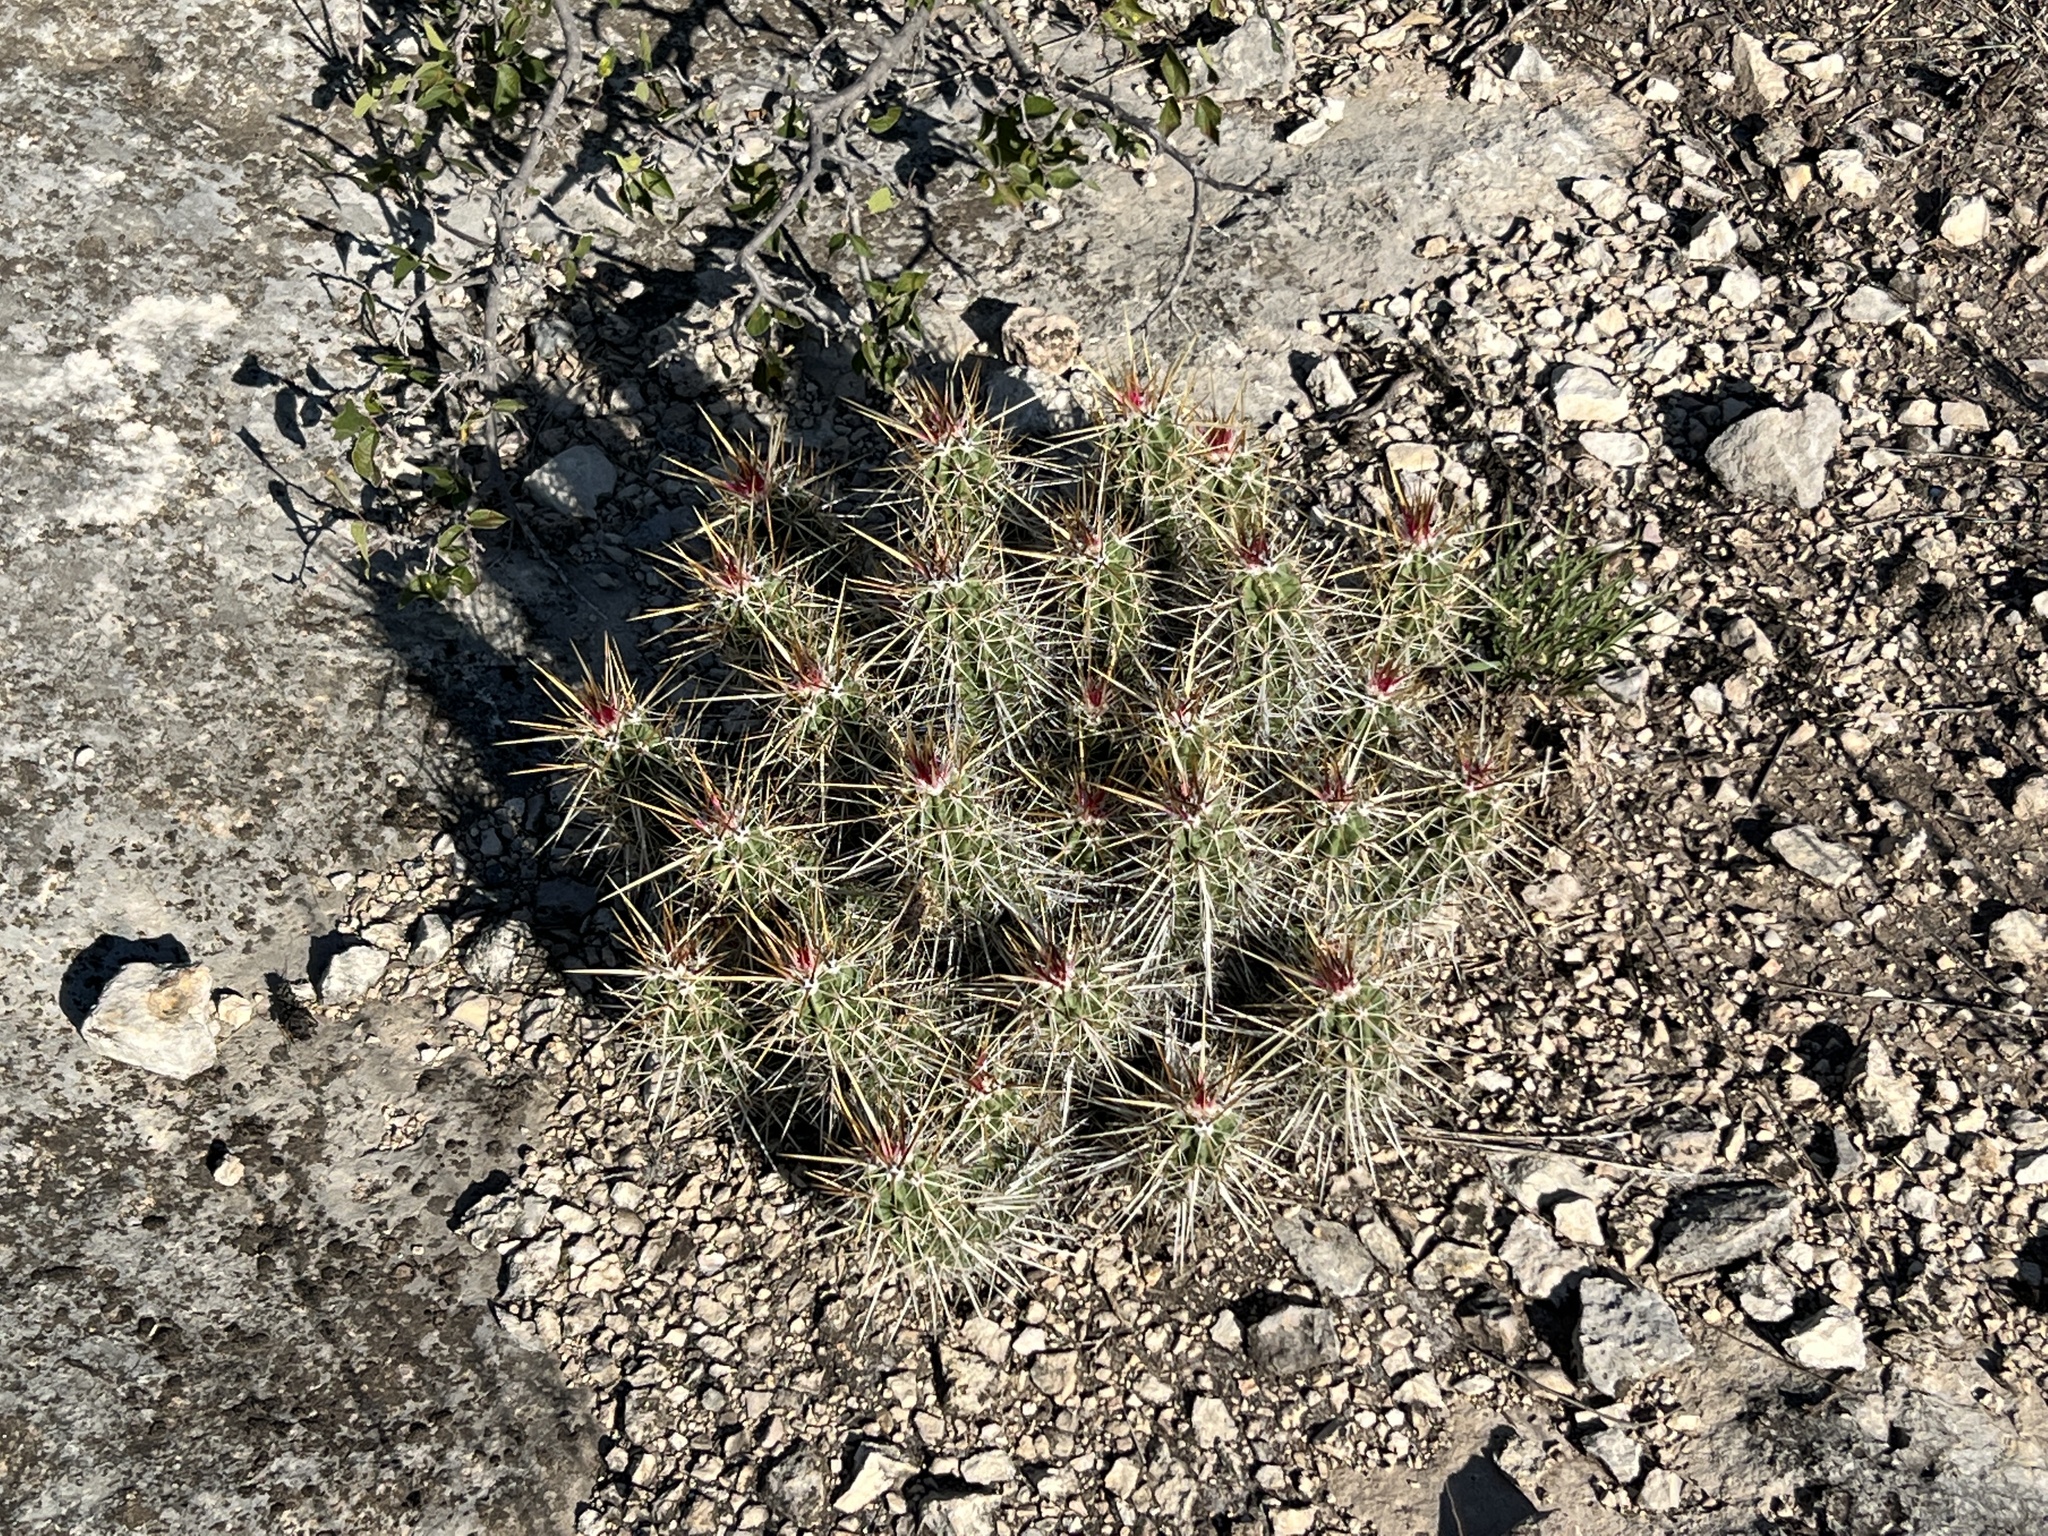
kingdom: Plantae
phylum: Tracheophyta
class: Magnoliopsida
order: Caryophyllales
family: Cactaceae
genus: Echinocereus
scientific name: Echinocereus enneacanthus
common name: Pitaya
